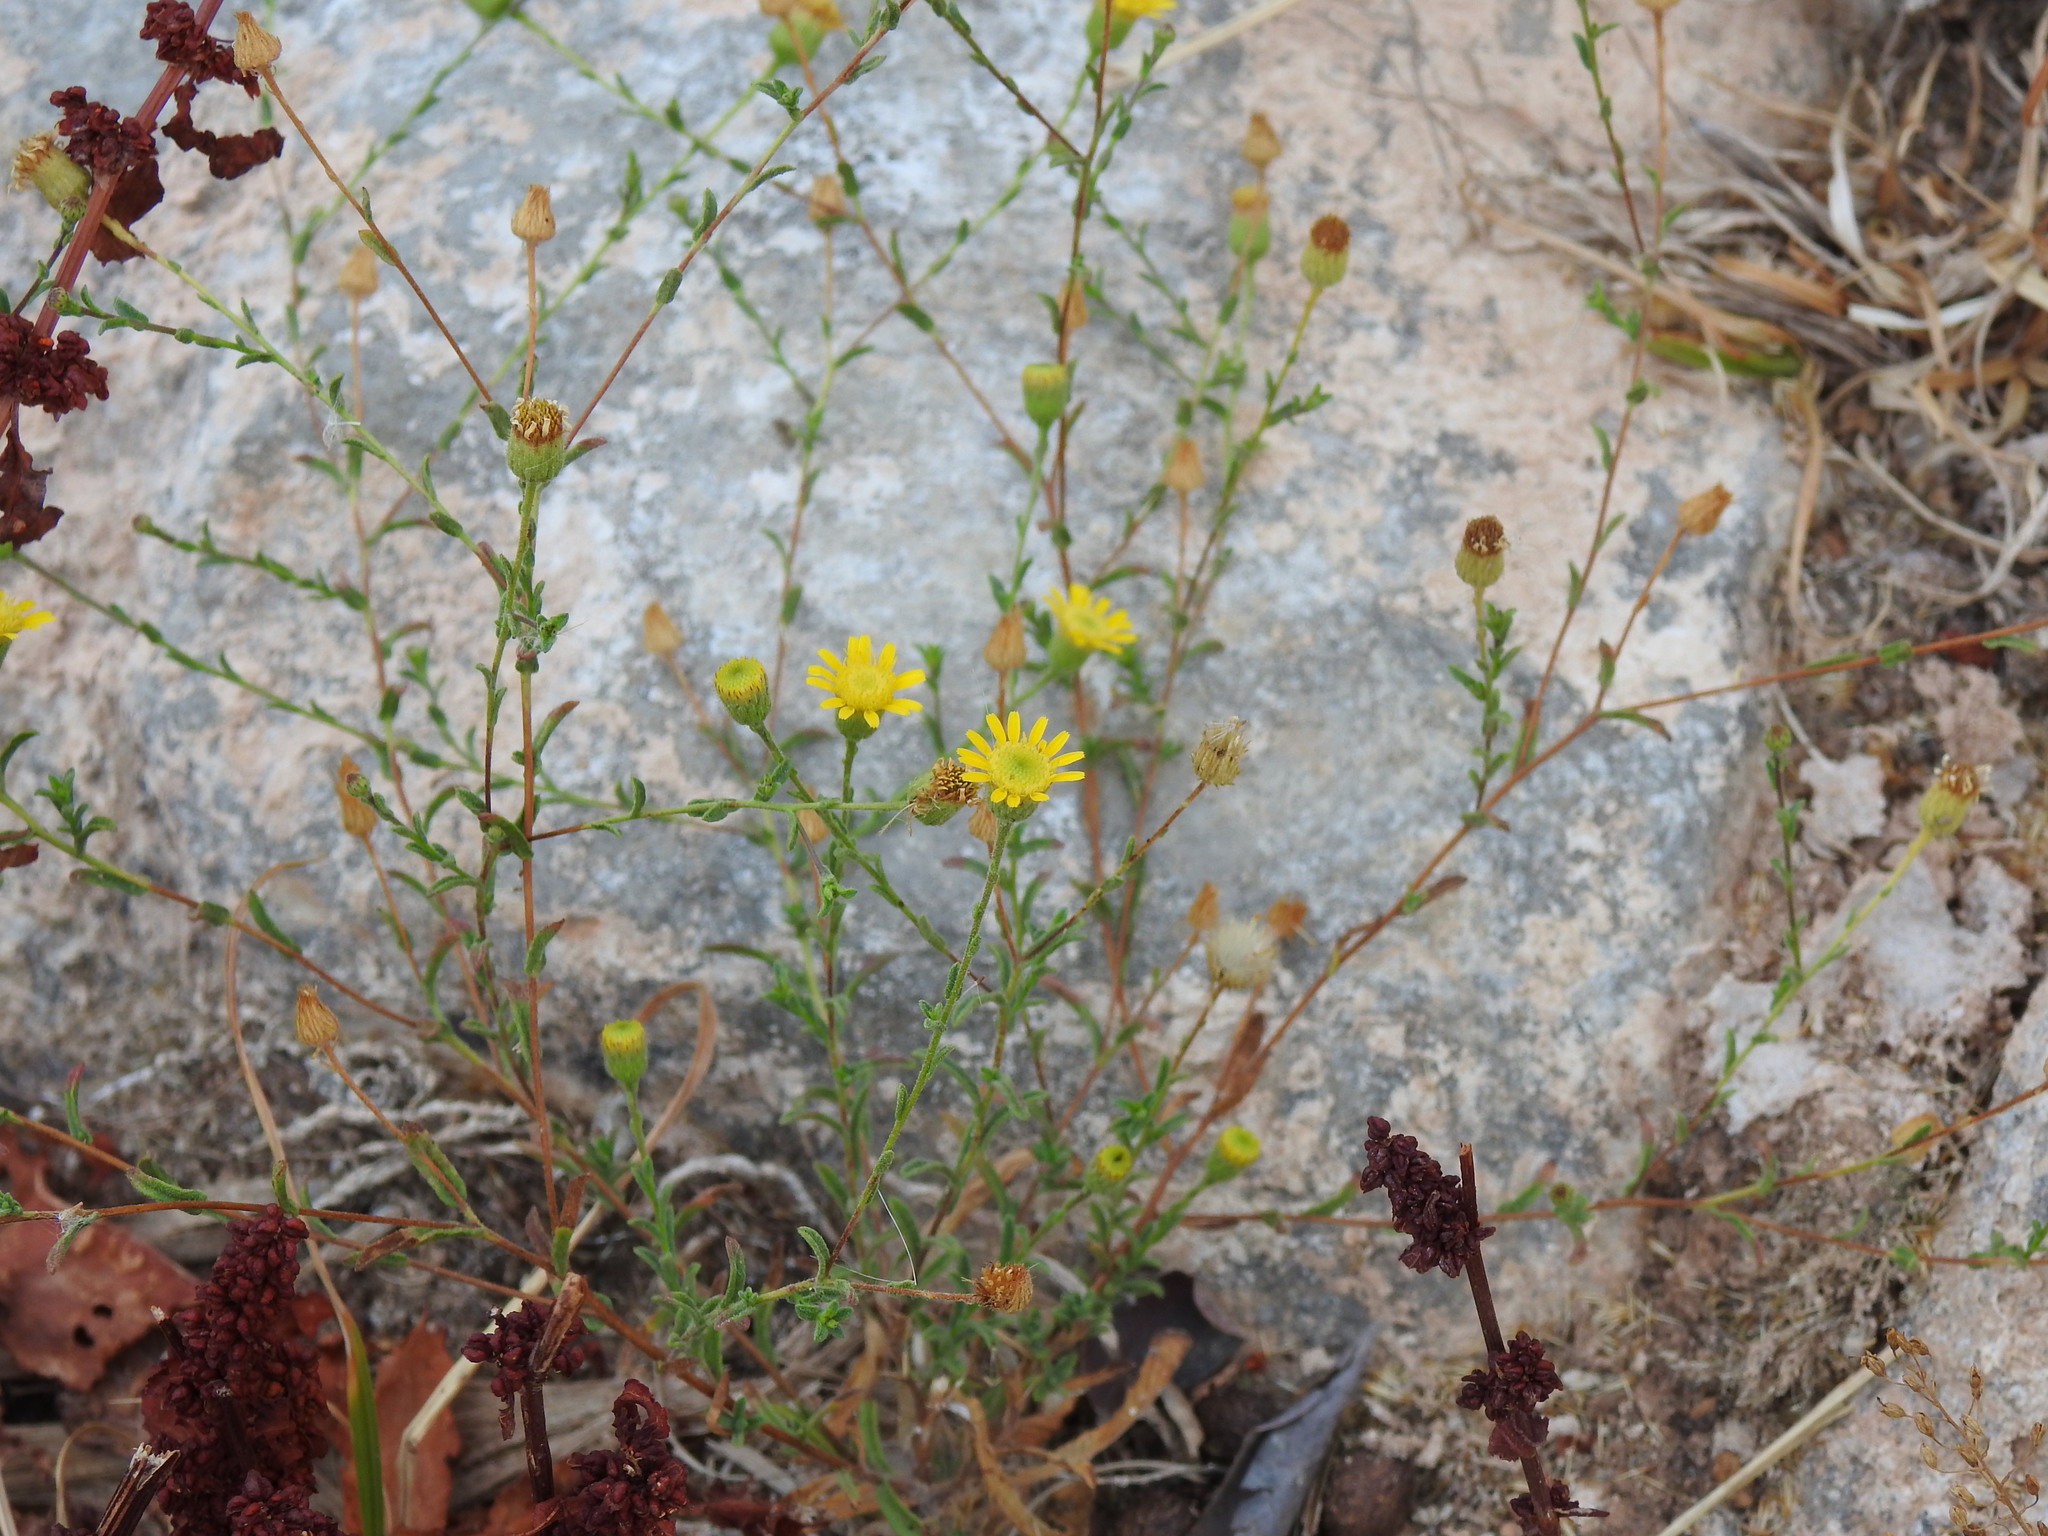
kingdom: Plantae
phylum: Tracheophyta
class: Magnoliopsida
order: Asterales
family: Asteraceae
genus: Pulicaria
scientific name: Pulicaria paludosa
